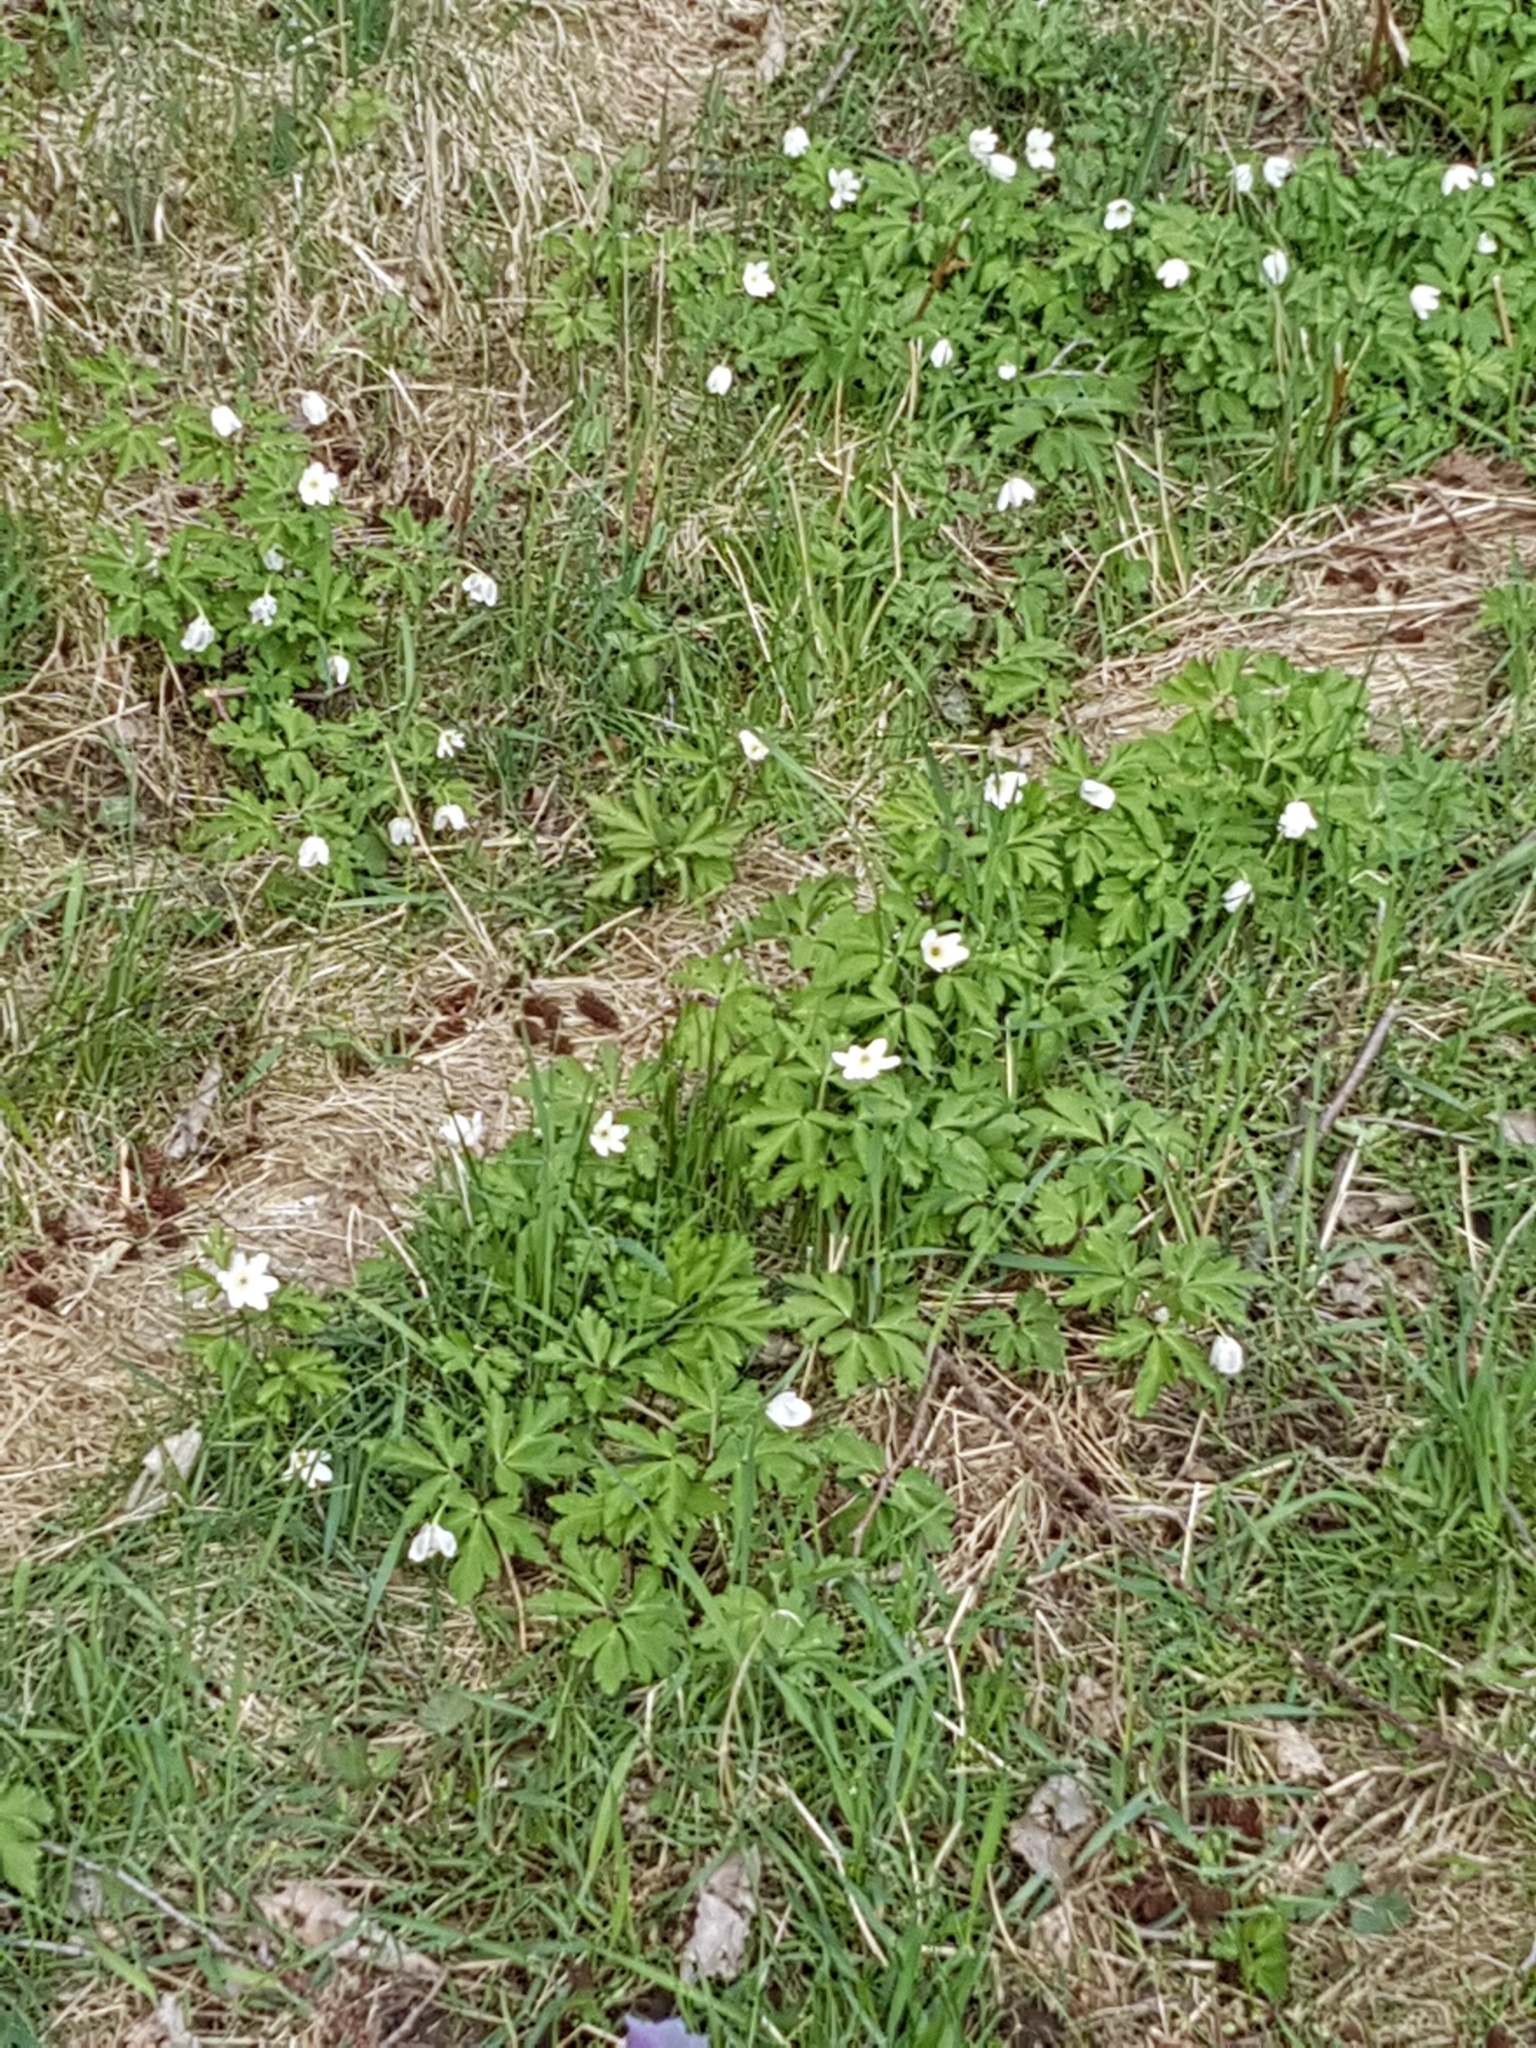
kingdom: Plantae
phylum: Tracheophyta
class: Magnoliopsida
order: Ranunculales
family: Ranunculaceae
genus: Anemone
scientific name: Anemone nemorosa
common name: Wood anemone
